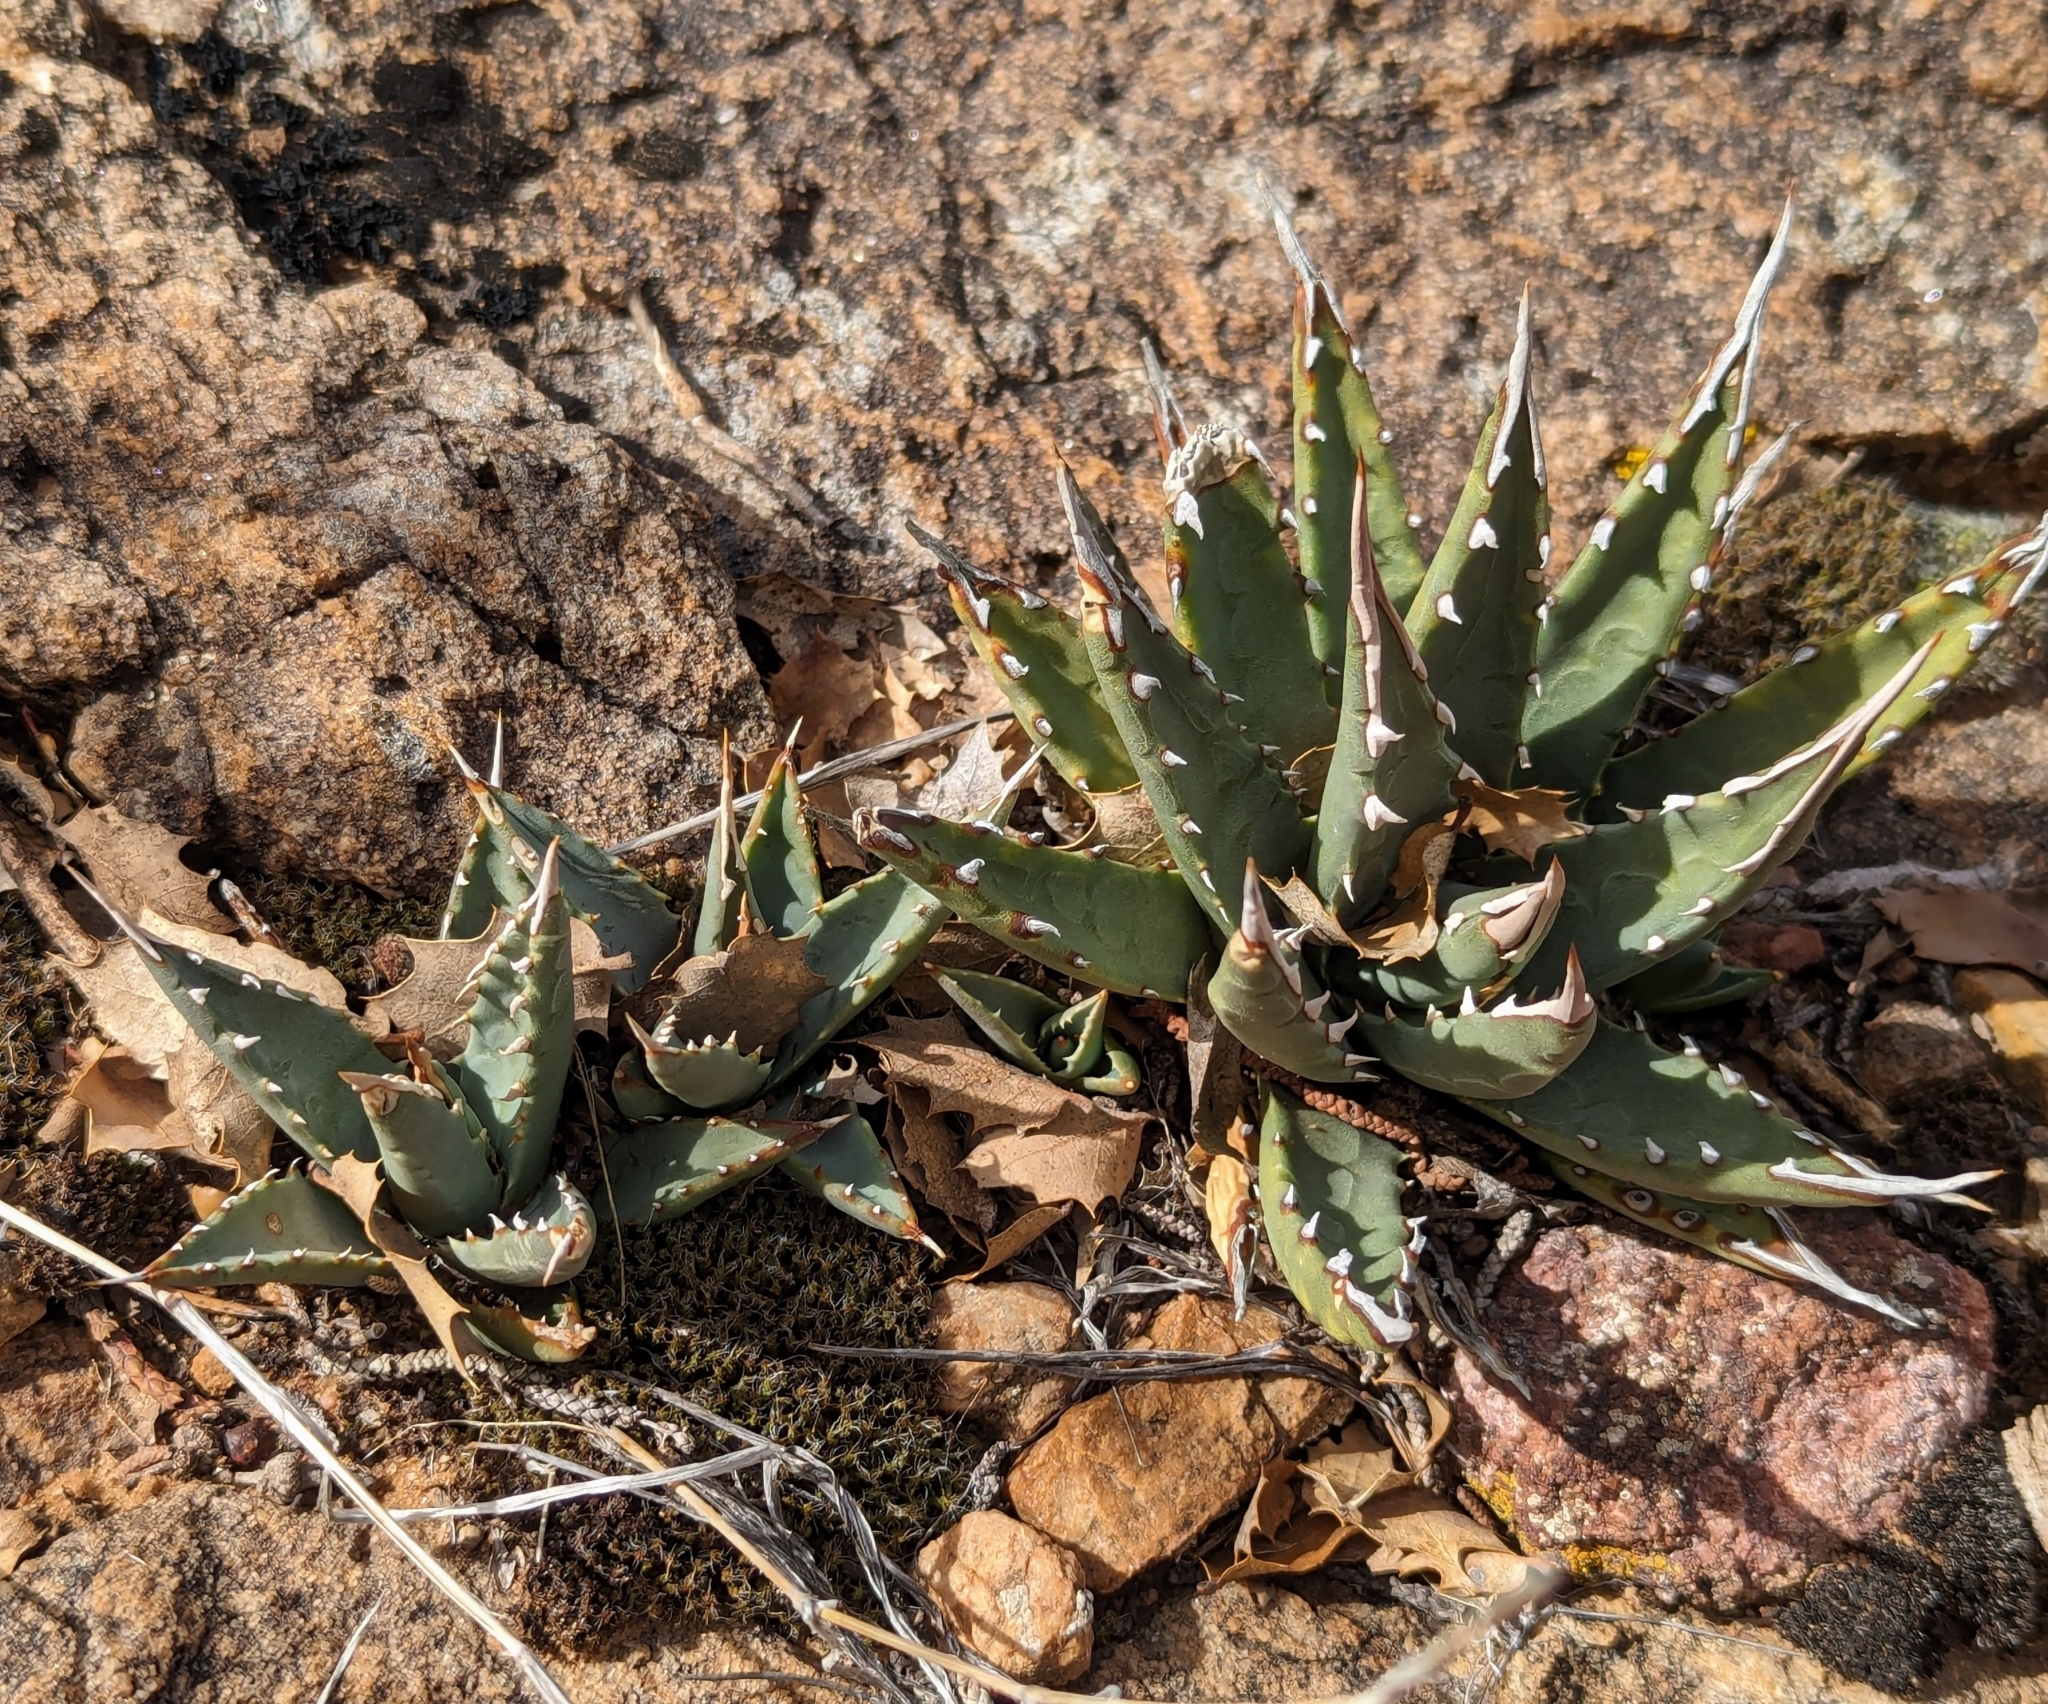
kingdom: Plantae
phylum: Tracheophyta
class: Liliopsida
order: Asparagales
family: Asparagaceae
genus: Agave
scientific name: Agave utahensis
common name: Utah agave
